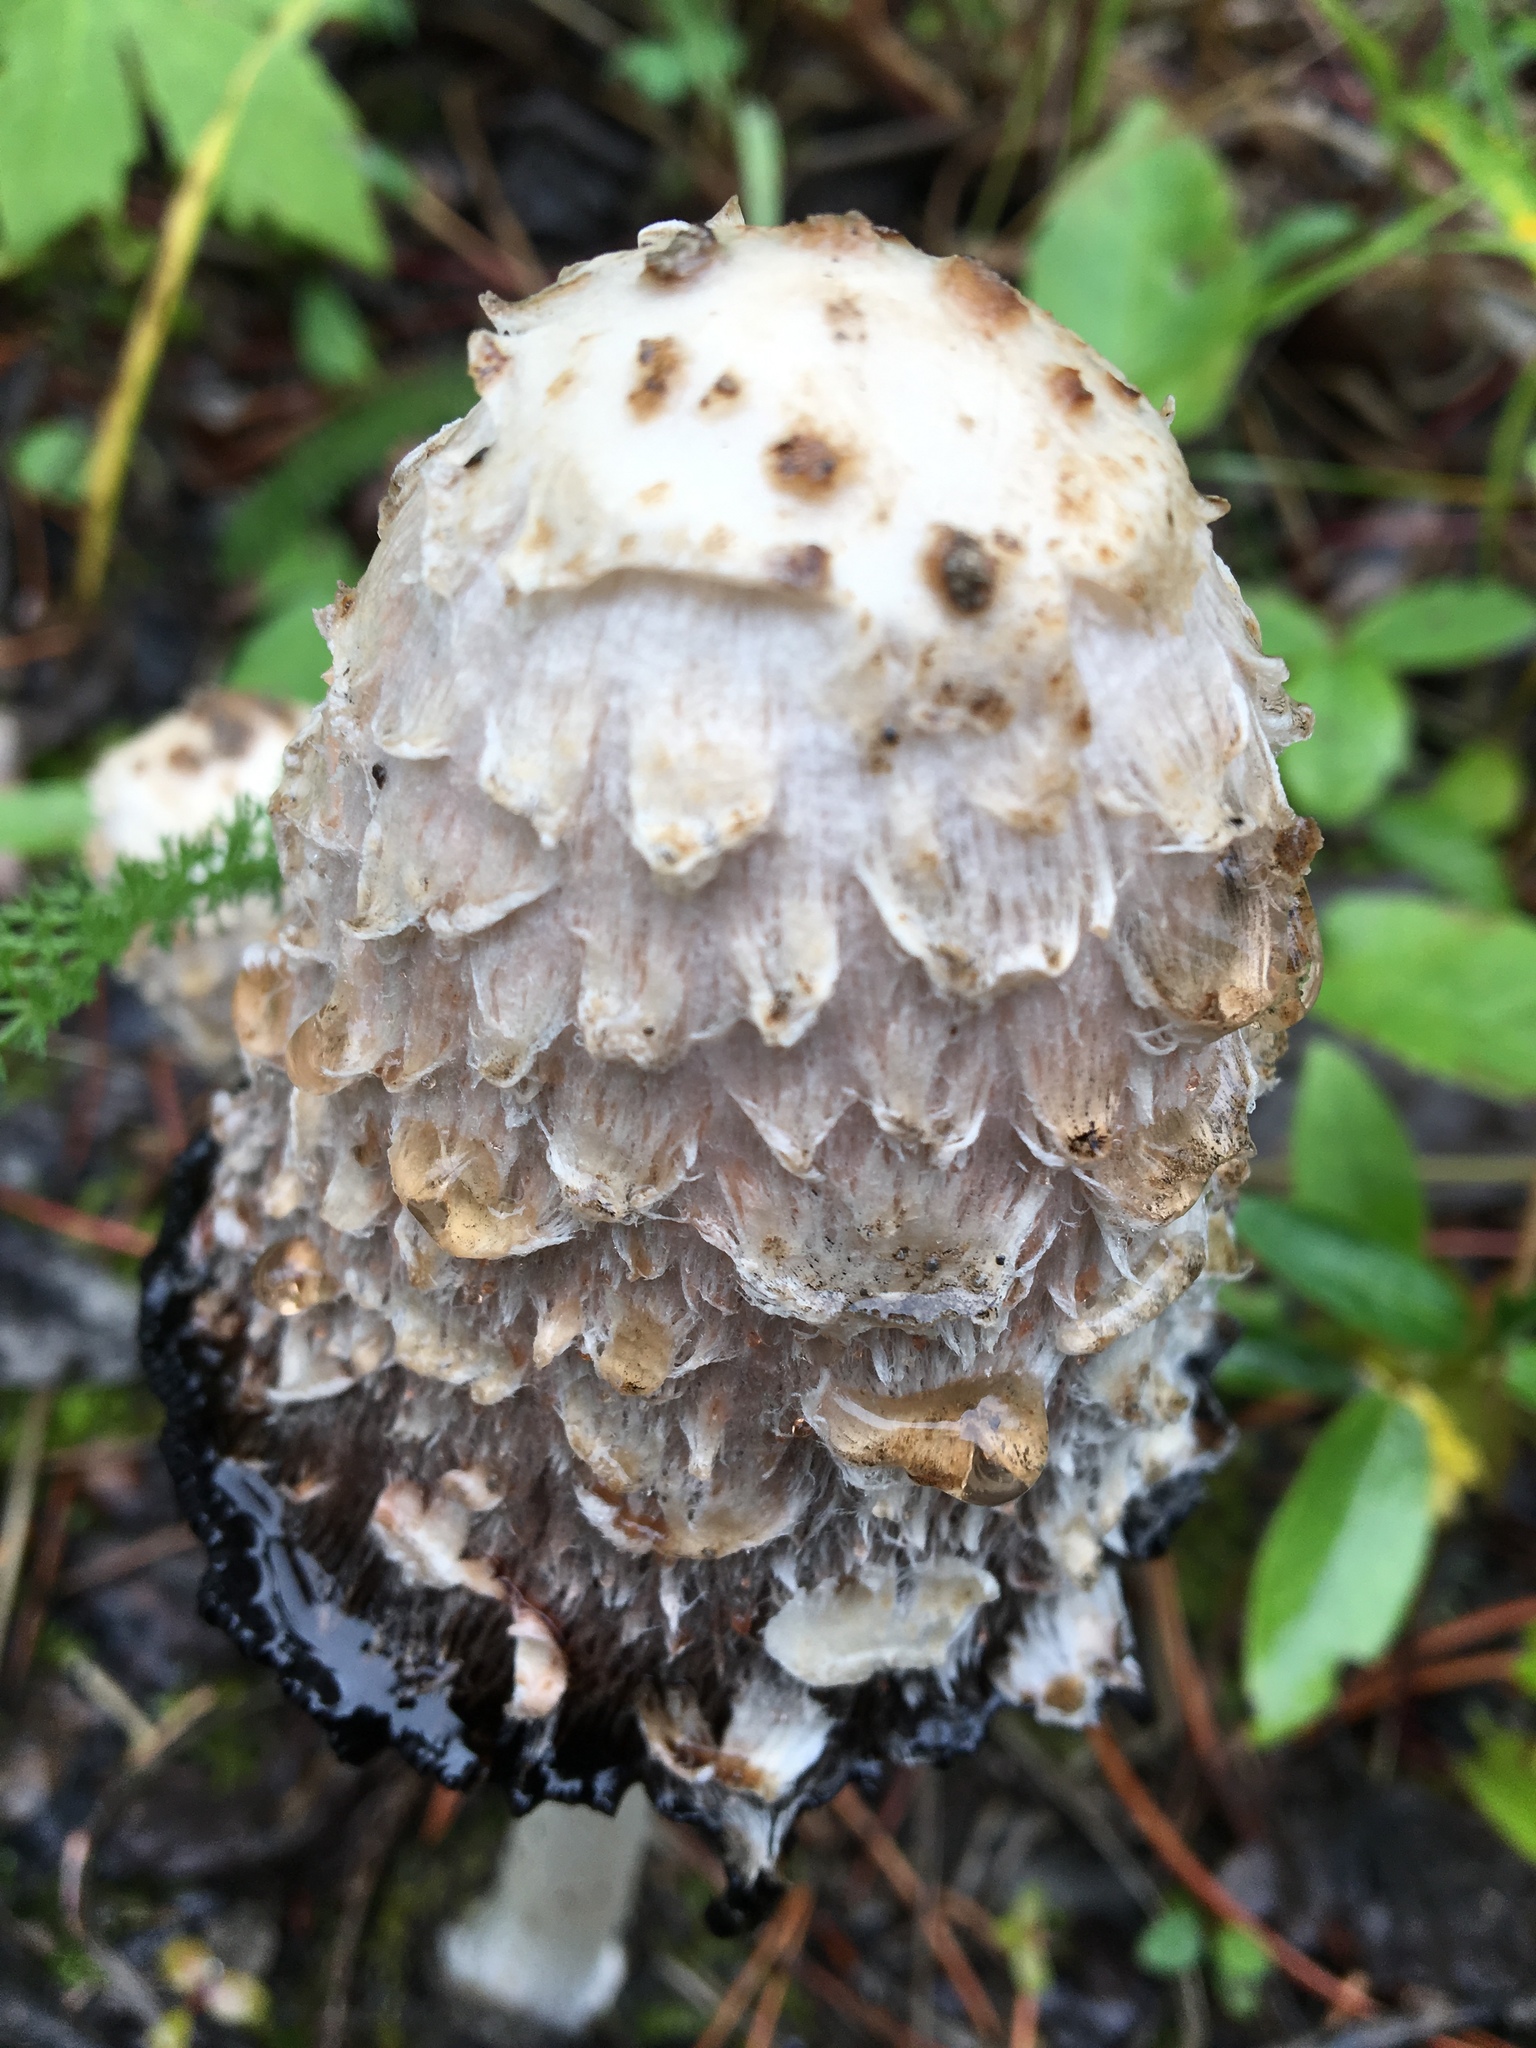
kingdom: Fungi
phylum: Basidiomycota
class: Agaricomycetes
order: Agaricales
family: Agaricaceae
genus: Coprinus
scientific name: Coprinus comatus
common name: Lawyer's wig
